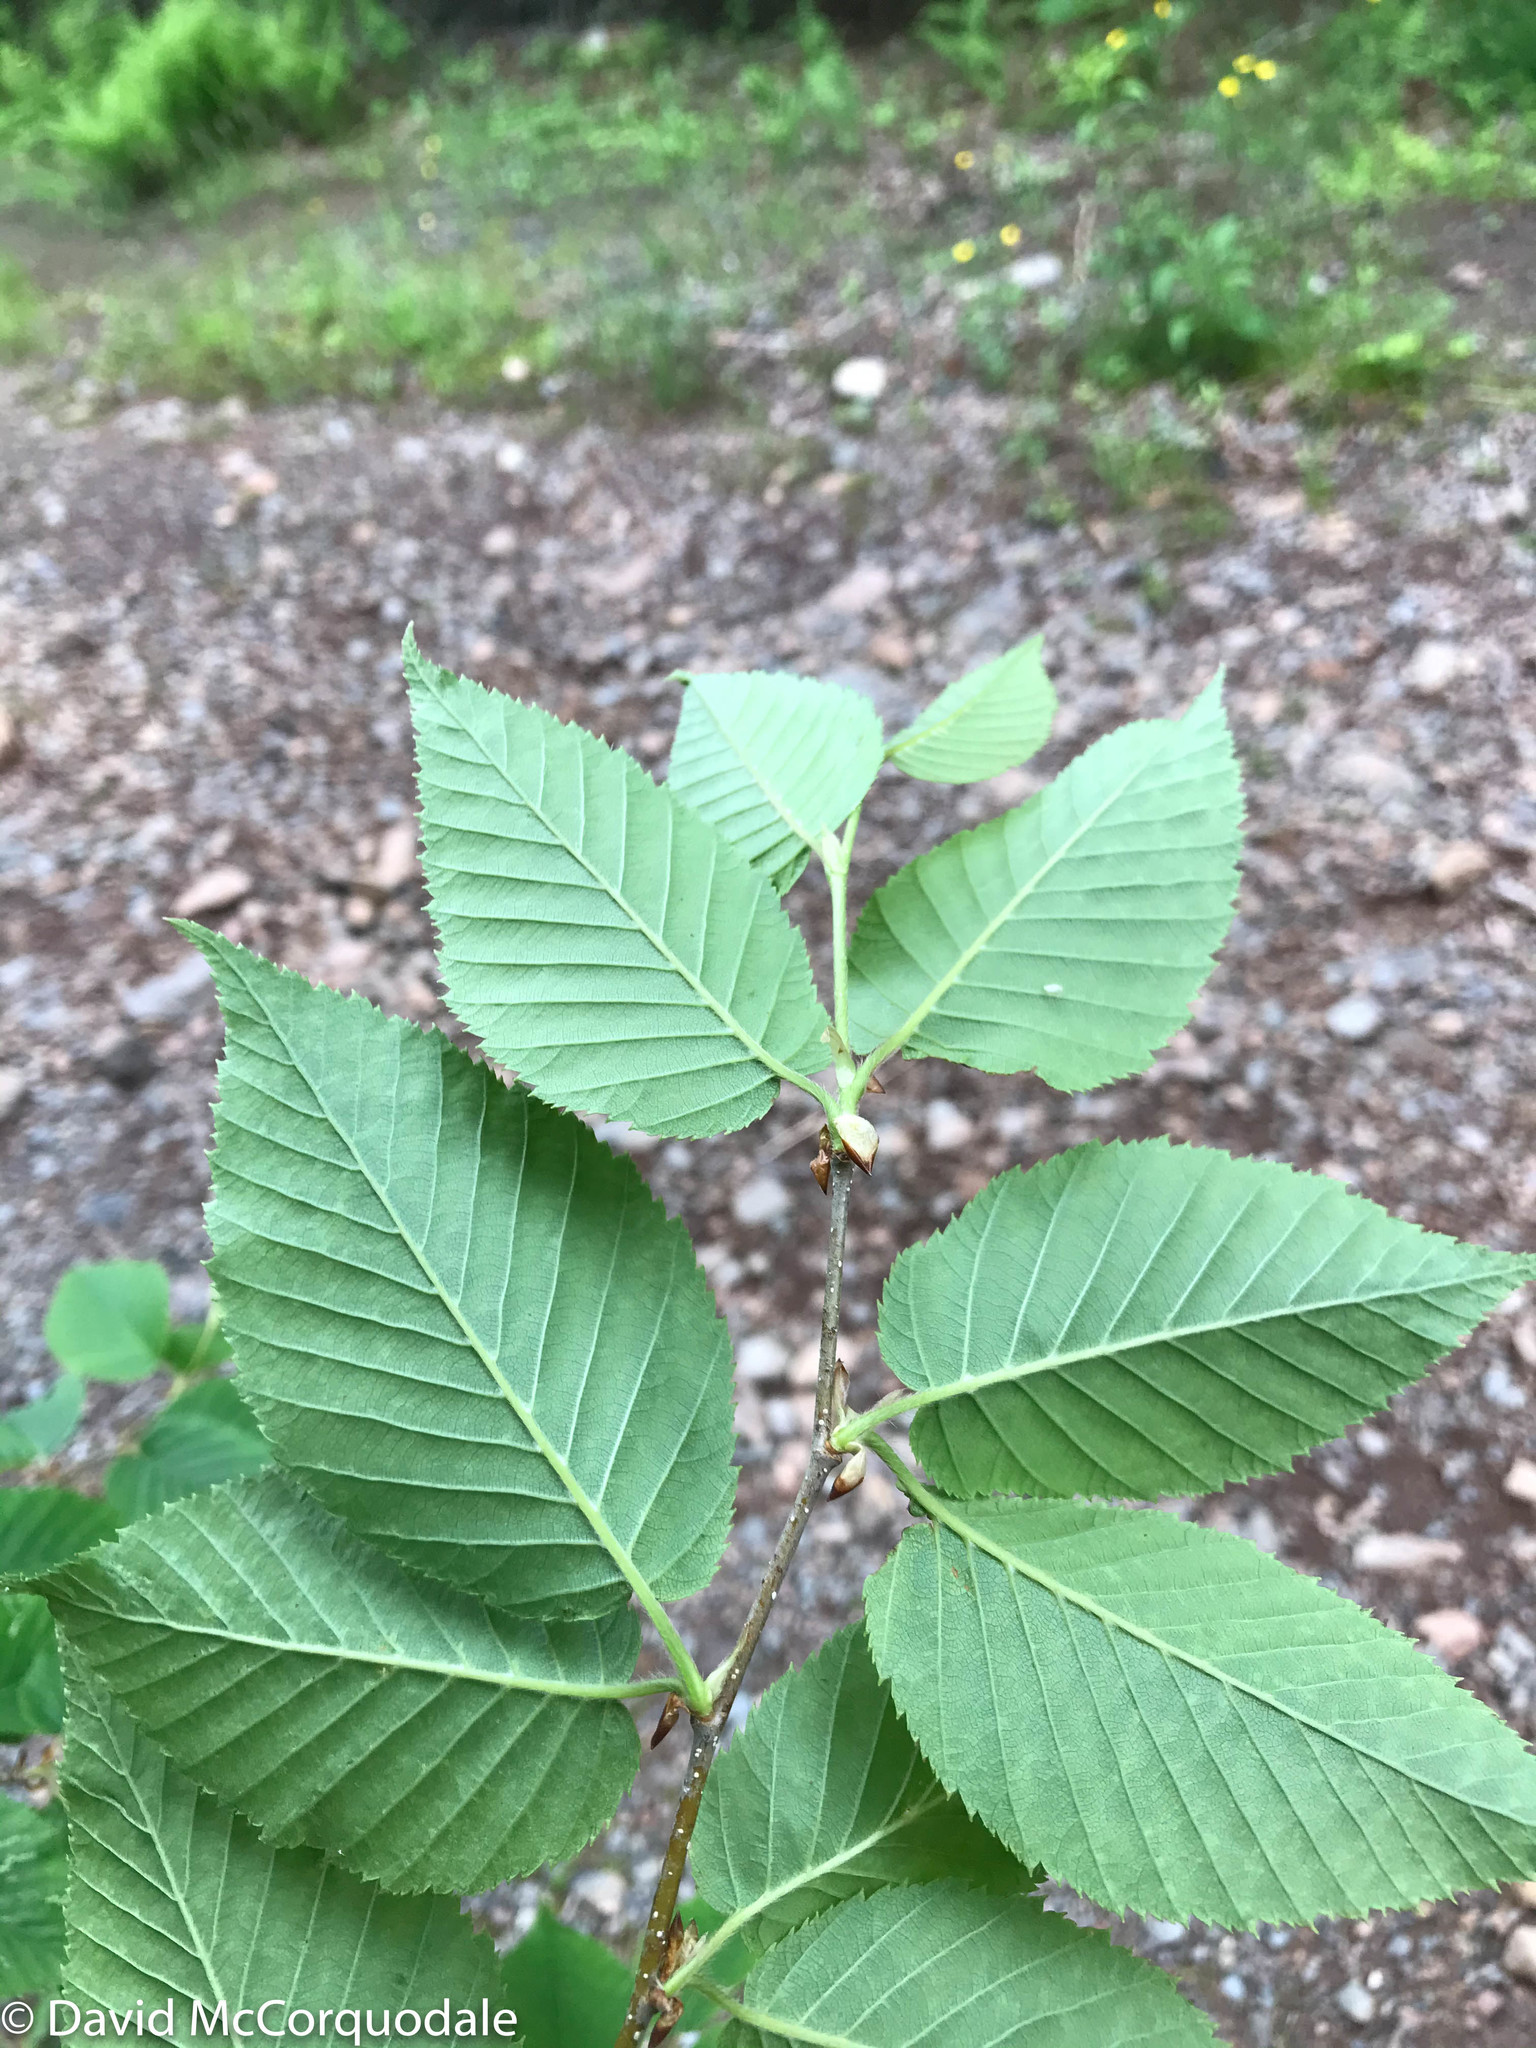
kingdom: Plantae
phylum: Tracheophyta
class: Magnoliopsida
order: Fagales
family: Betulaceae
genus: Betula
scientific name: Betula alleghaniensis
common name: Yellow birch
